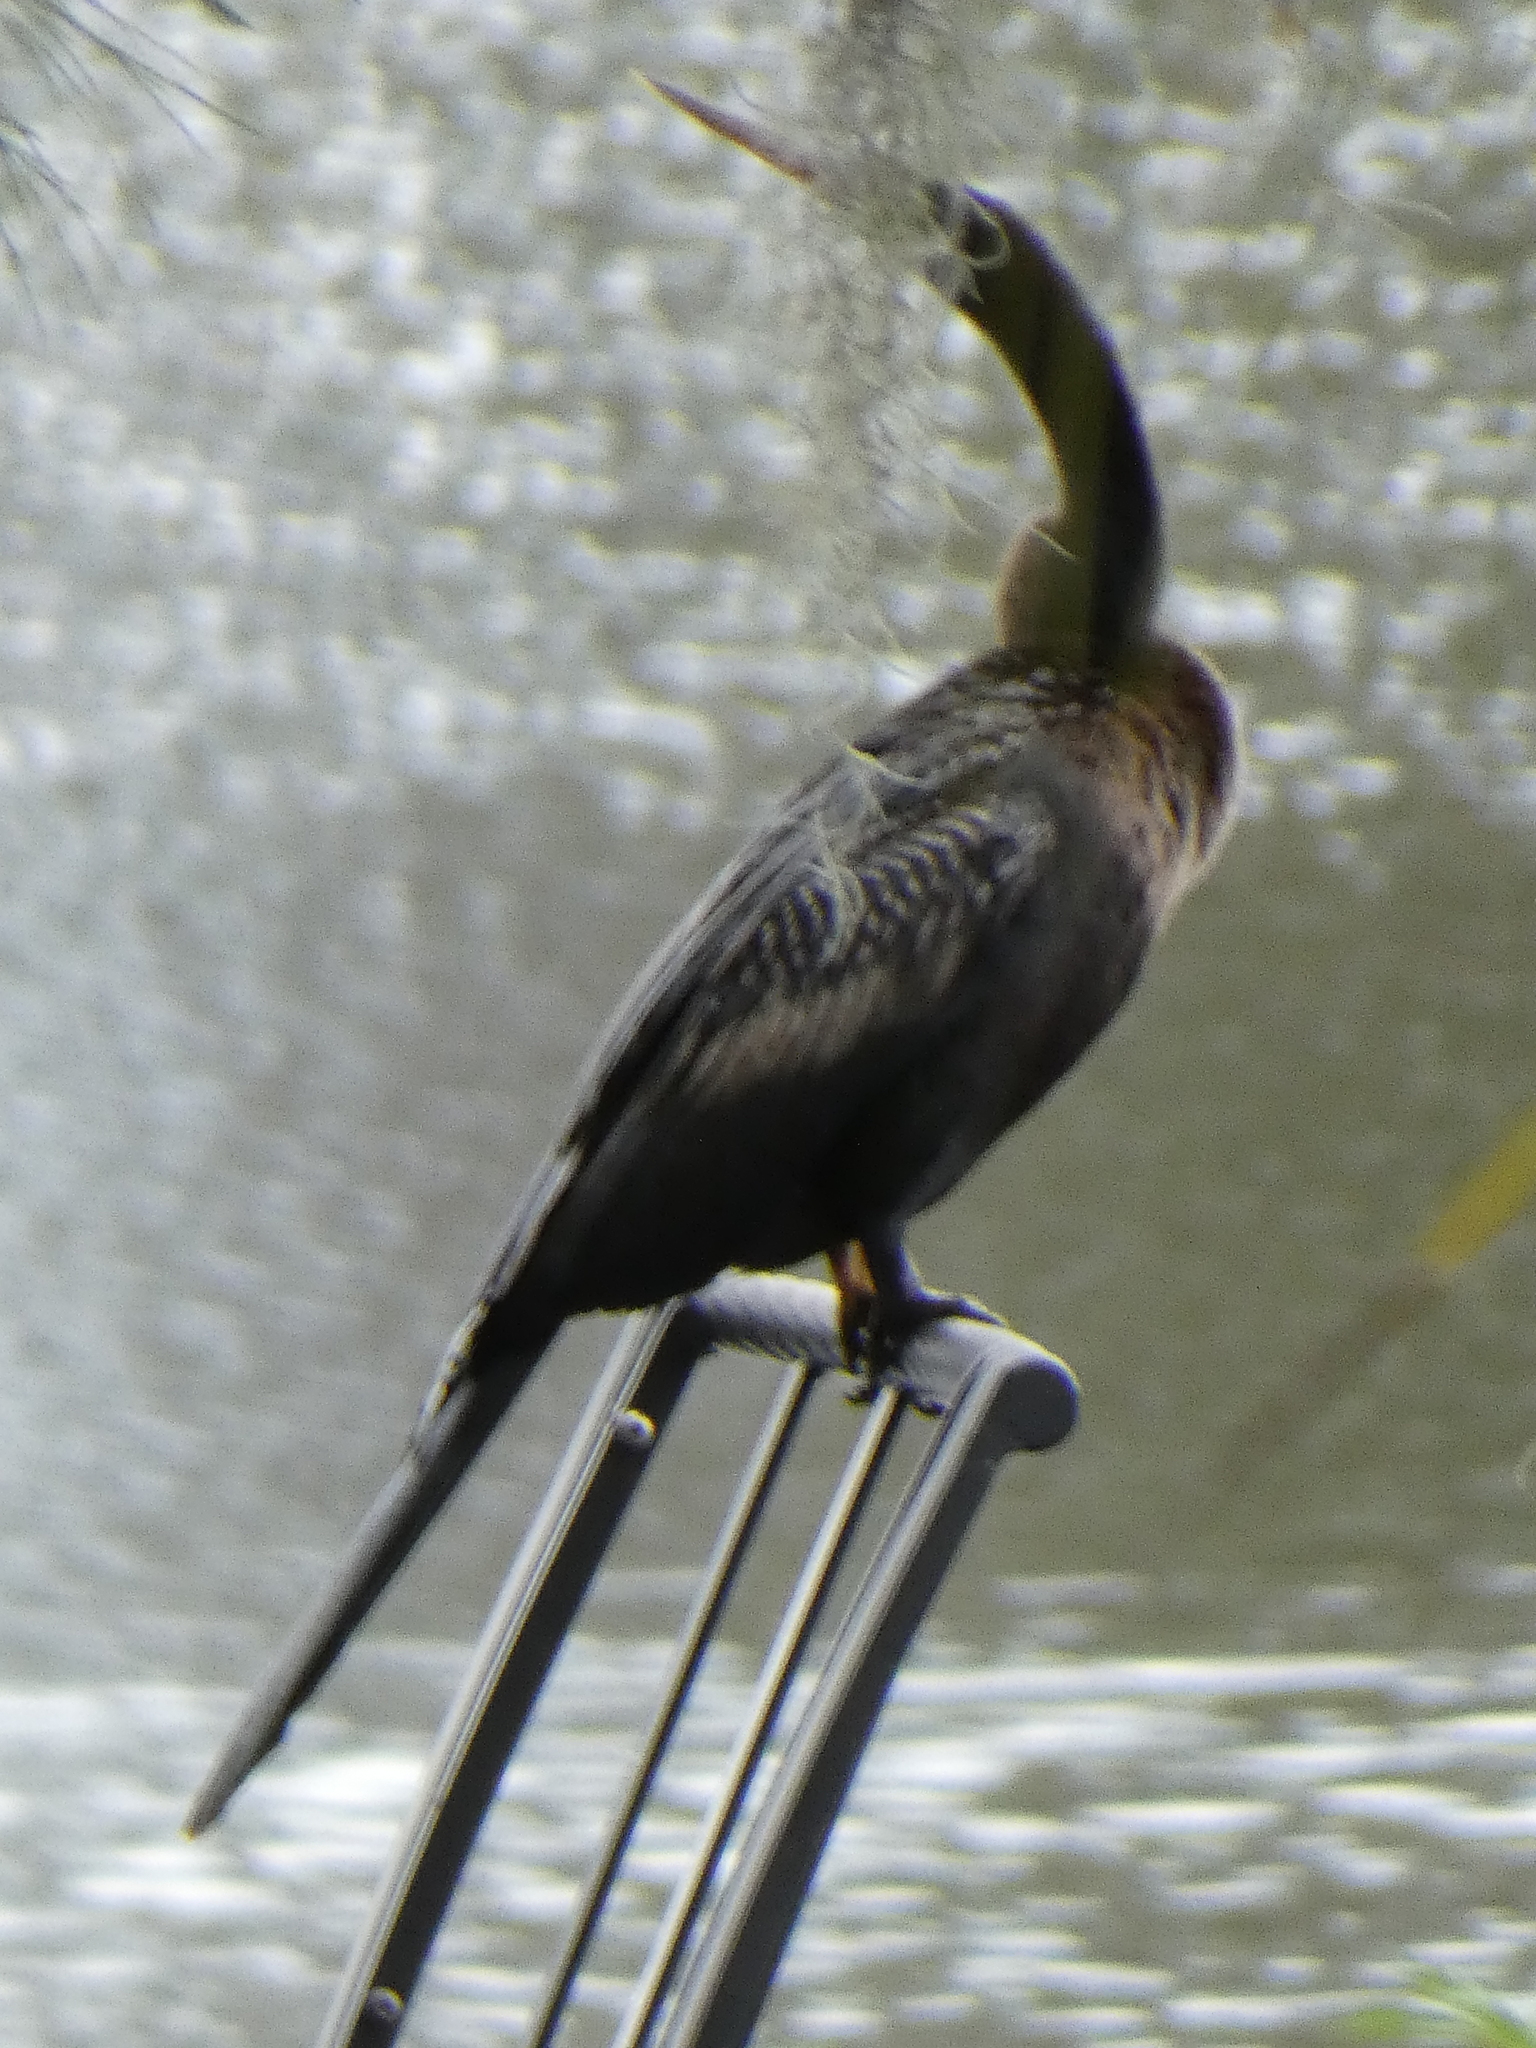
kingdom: Animalia
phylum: Chordata
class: Aves
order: Suliformes
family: Anhingidae
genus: Anhinga
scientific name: Anhinga anhinga
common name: Anhinga
